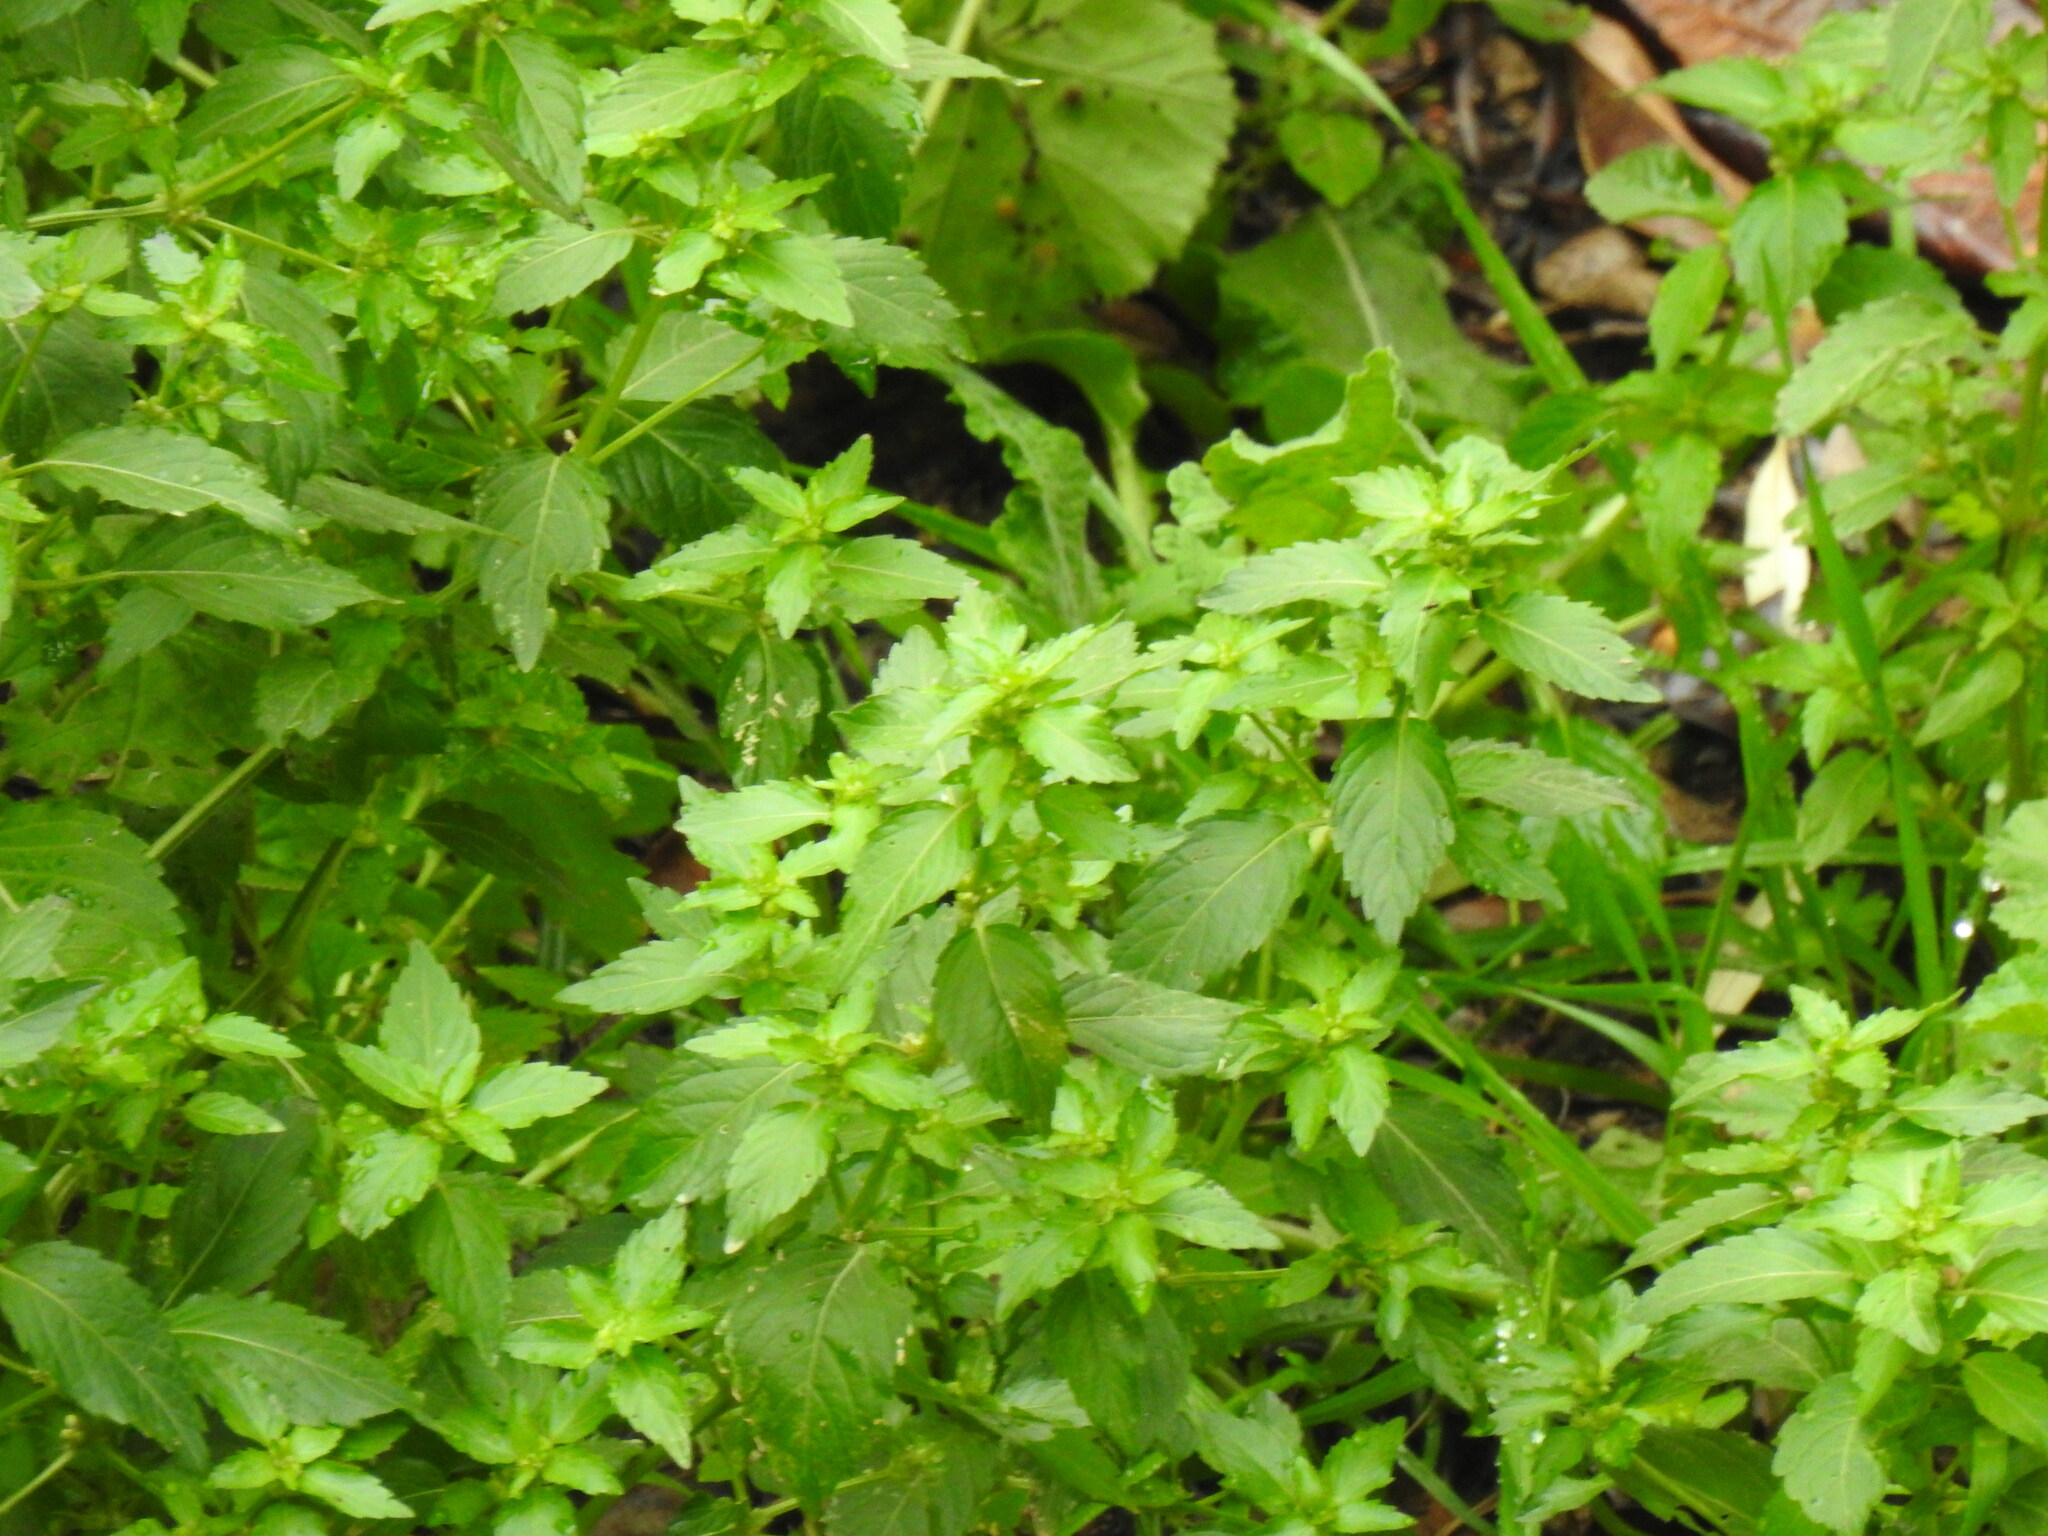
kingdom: Plantae
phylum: Tracheophyta
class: Magnoliopsida
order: Malpighiales
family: Euphorbiaceae
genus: Mercurialis
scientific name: Mercurialis annua
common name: Annual mercury
